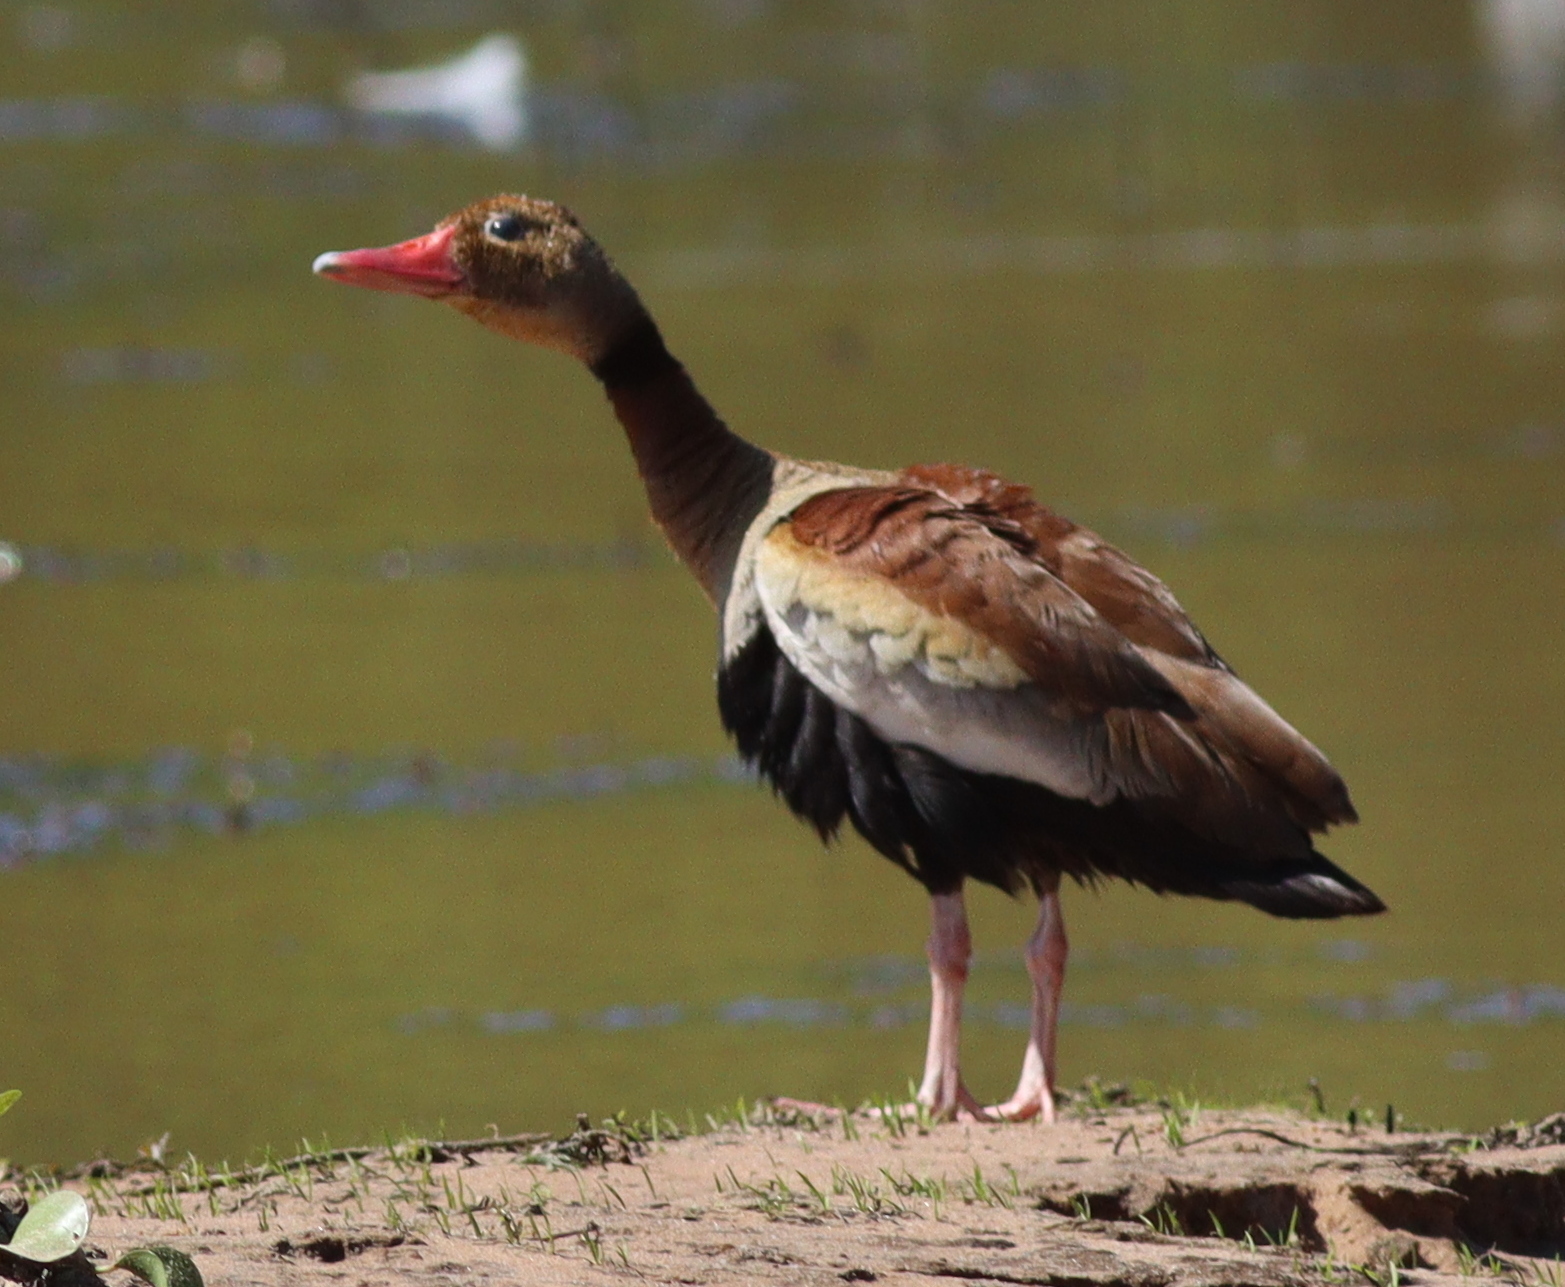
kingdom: Animalia
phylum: Chordata
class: Aves
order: Anseriformes
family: Anatidae
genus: Dendrocygna
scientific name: Dendrocygna autumnalis
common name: Black-bellied whistling duck
